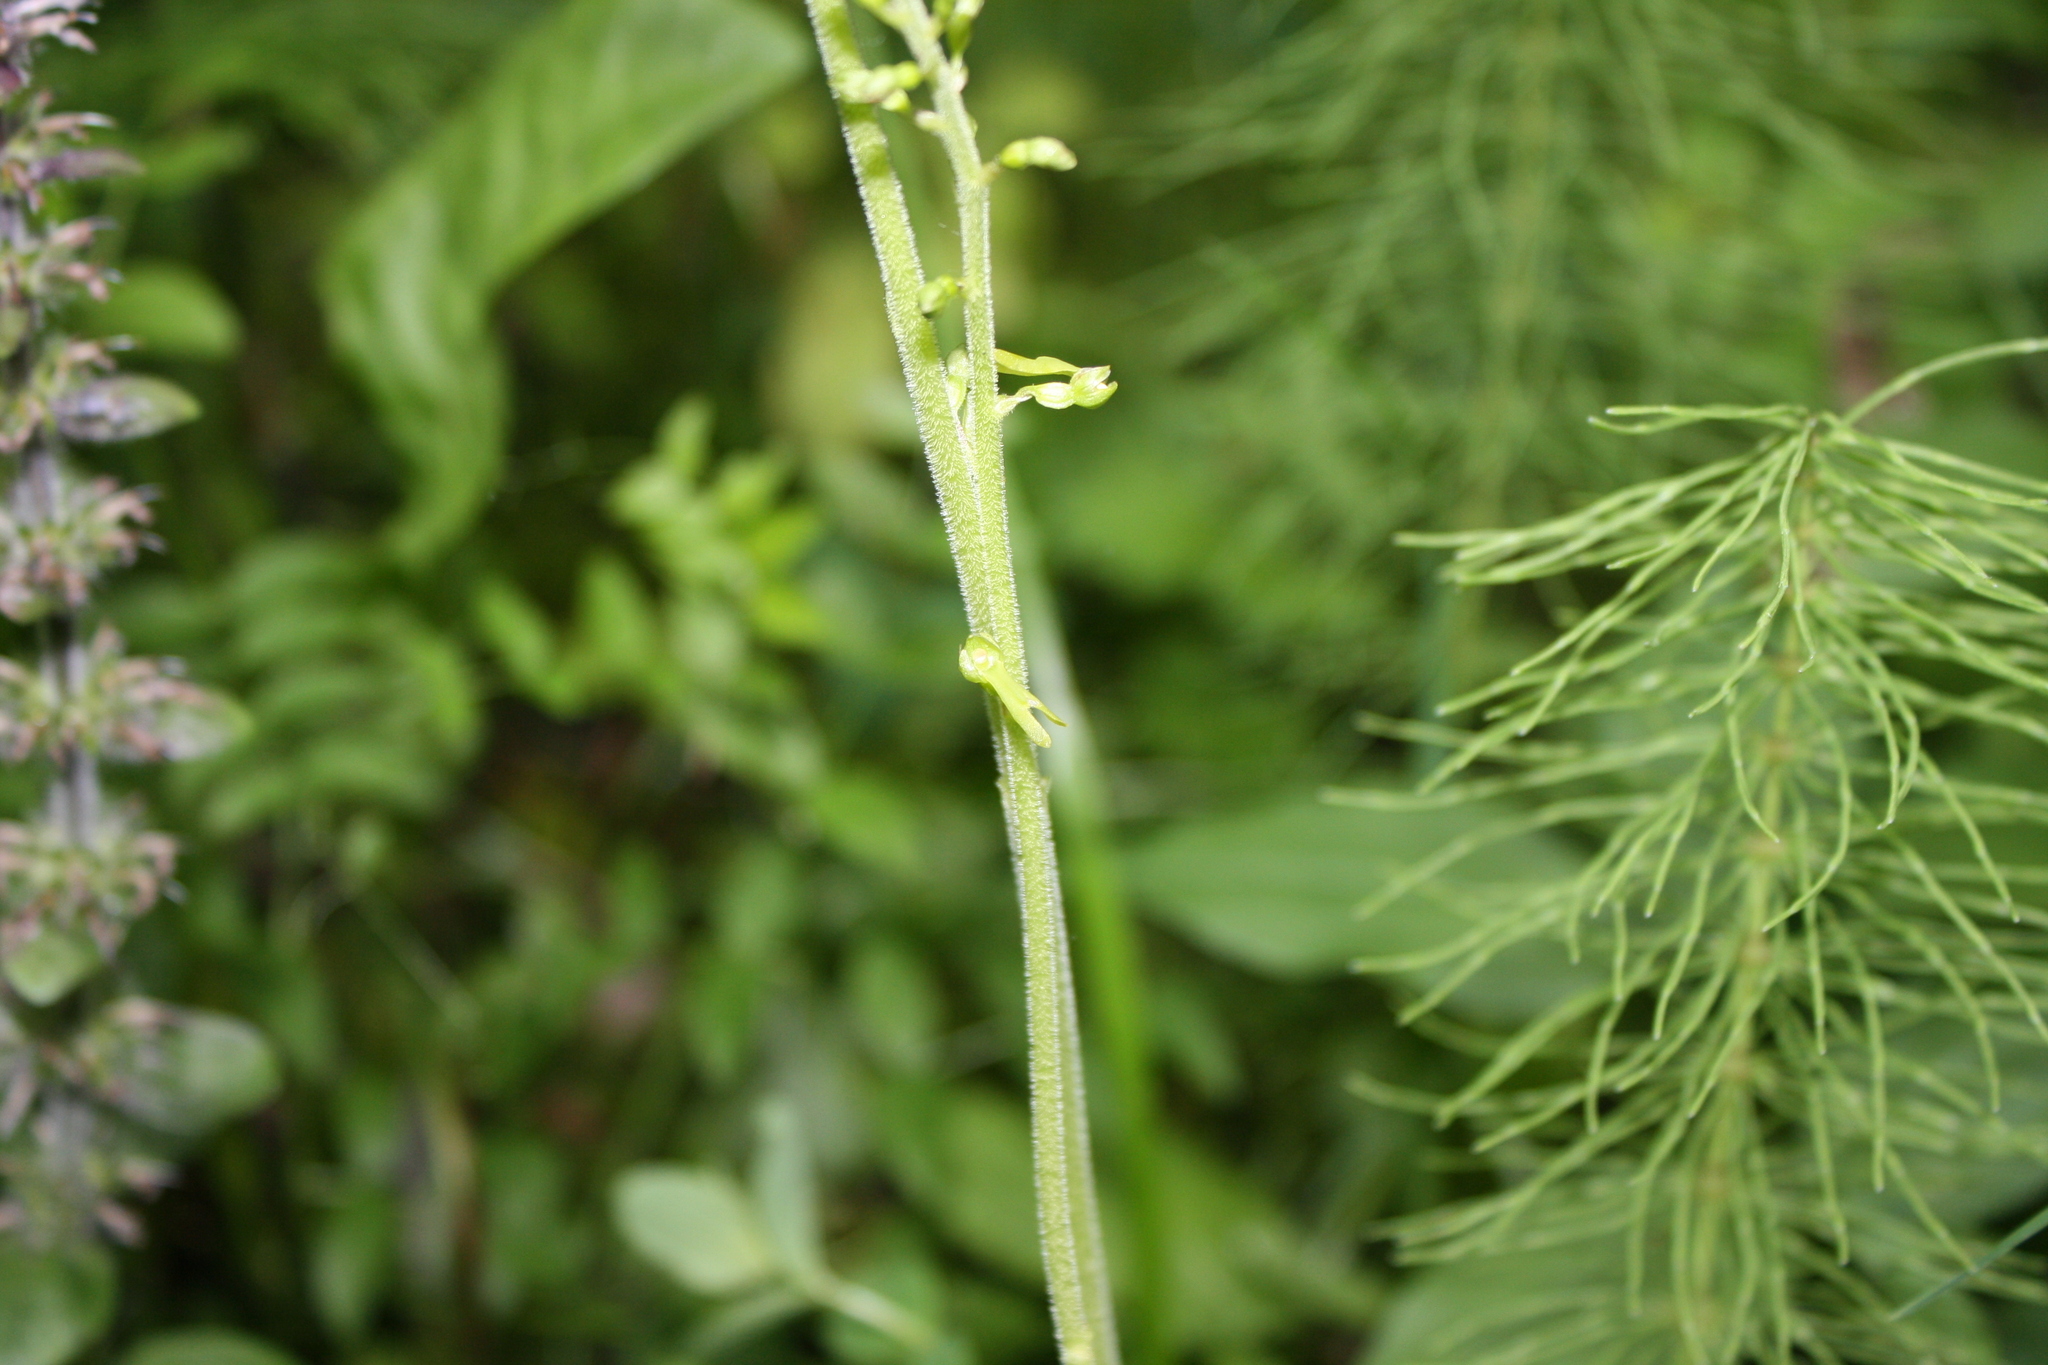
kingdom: Plantae
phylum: Tracheophyta
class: Liliopsida
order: Asparagales
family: Orchidaceae
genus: Neottia
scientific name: Neottia ovata
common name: Common twayblade
